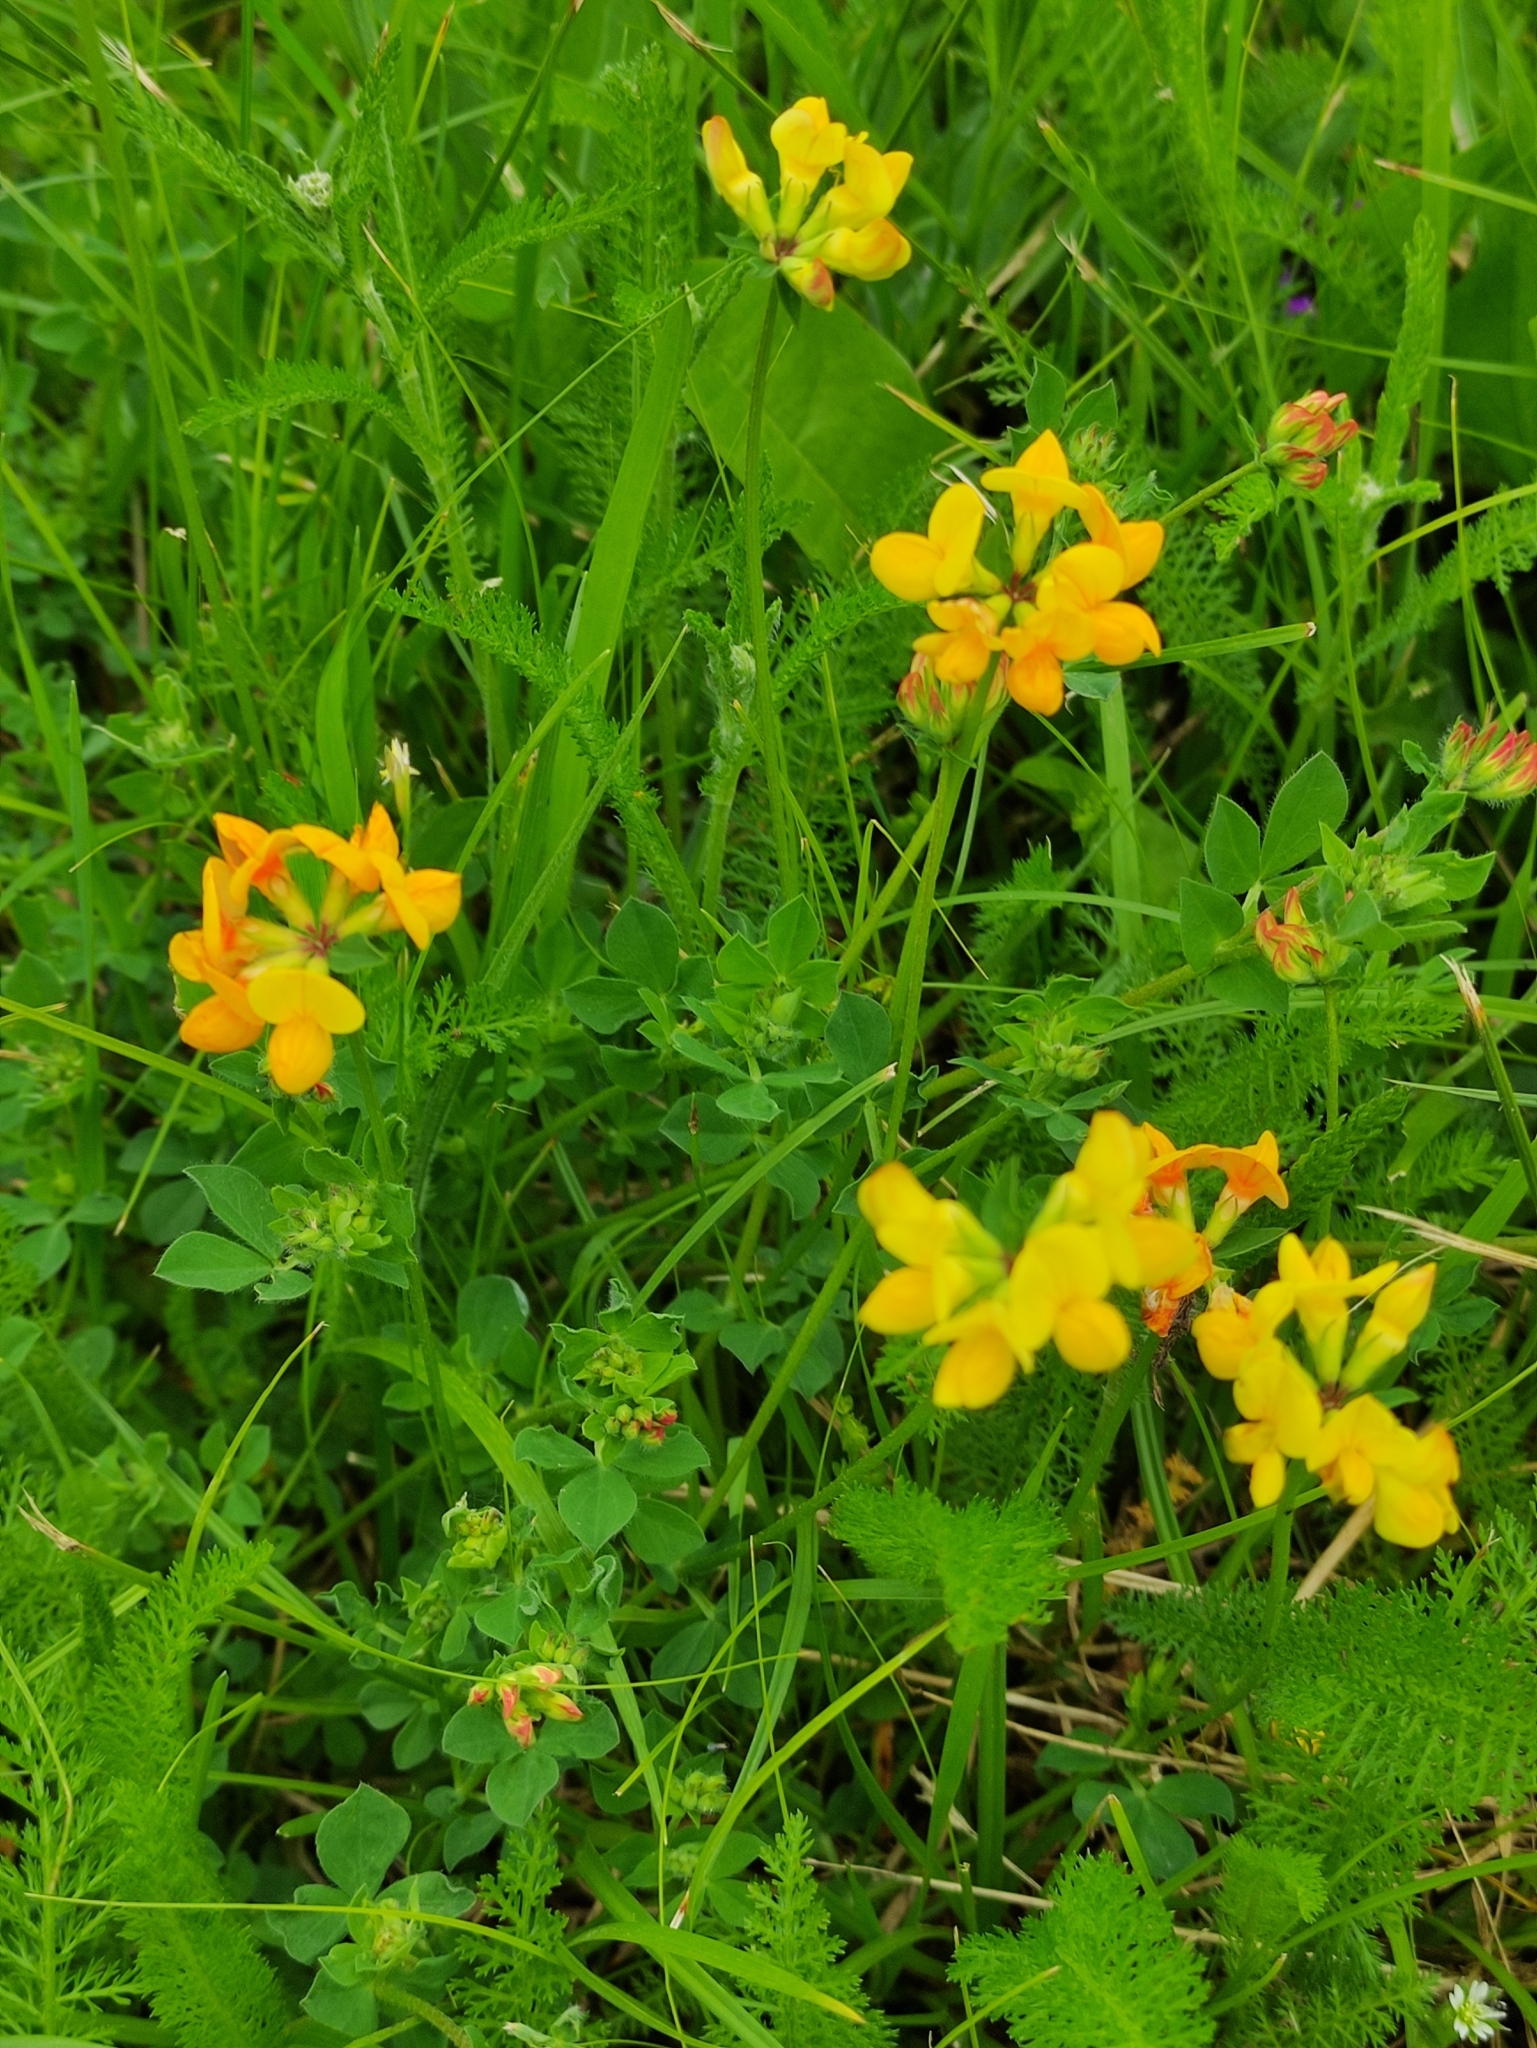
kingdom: Plantae
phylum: Tracheophyta
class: Magnoliopsida
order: Fabales
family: Fabaceae
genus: Lotus
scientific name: Lotus corniculatus
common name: Common bird's-foot-trefoil
